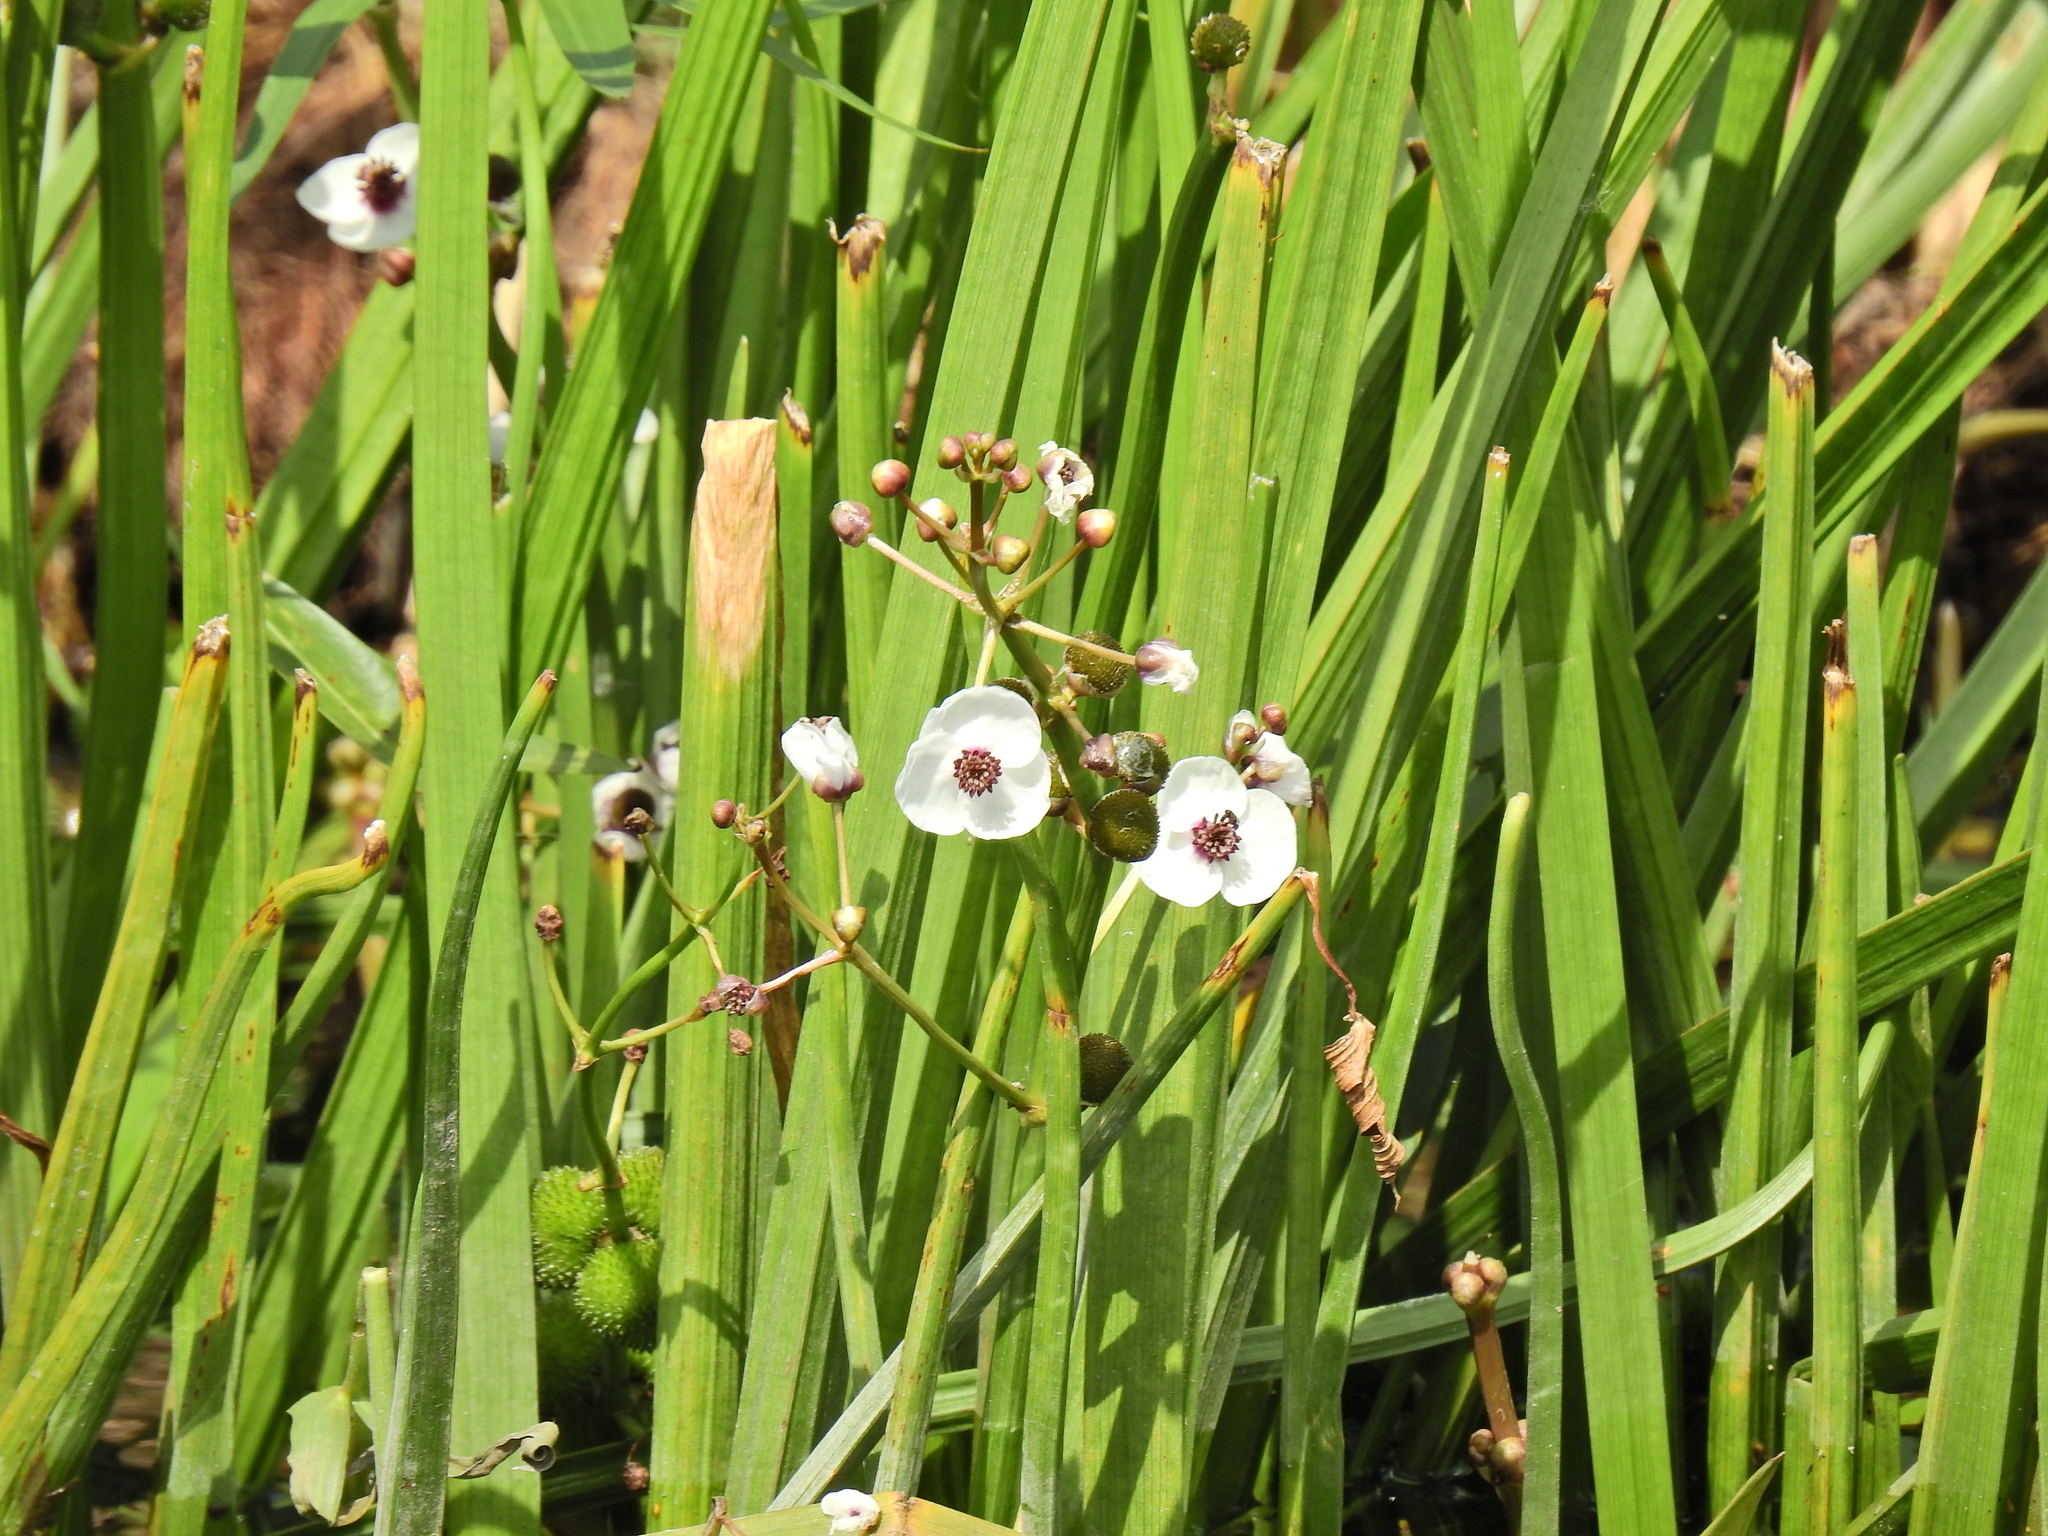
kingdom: Plantae
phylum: Tracheophyta
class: Liliopsida
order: Alismatales
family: Alismataceae
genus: Sagittaria
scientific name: Sagittaria sagittifolia
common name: Arrowhead
